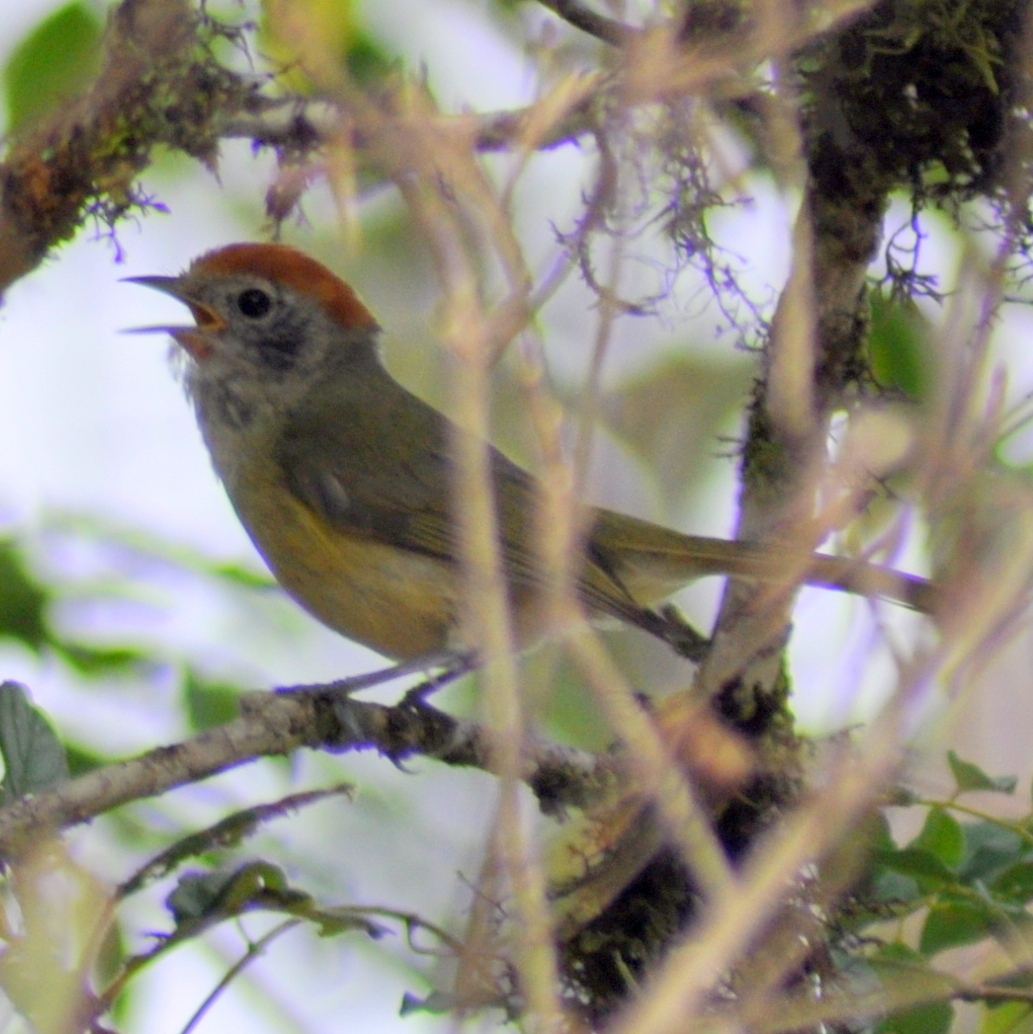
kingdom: Animalia
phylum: Chordata
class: Aves
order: Passeriformes
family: Vireonidae
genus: Hylophilus
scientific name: Hylophilus poicilotis
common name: Rufous-crowned greenlet
